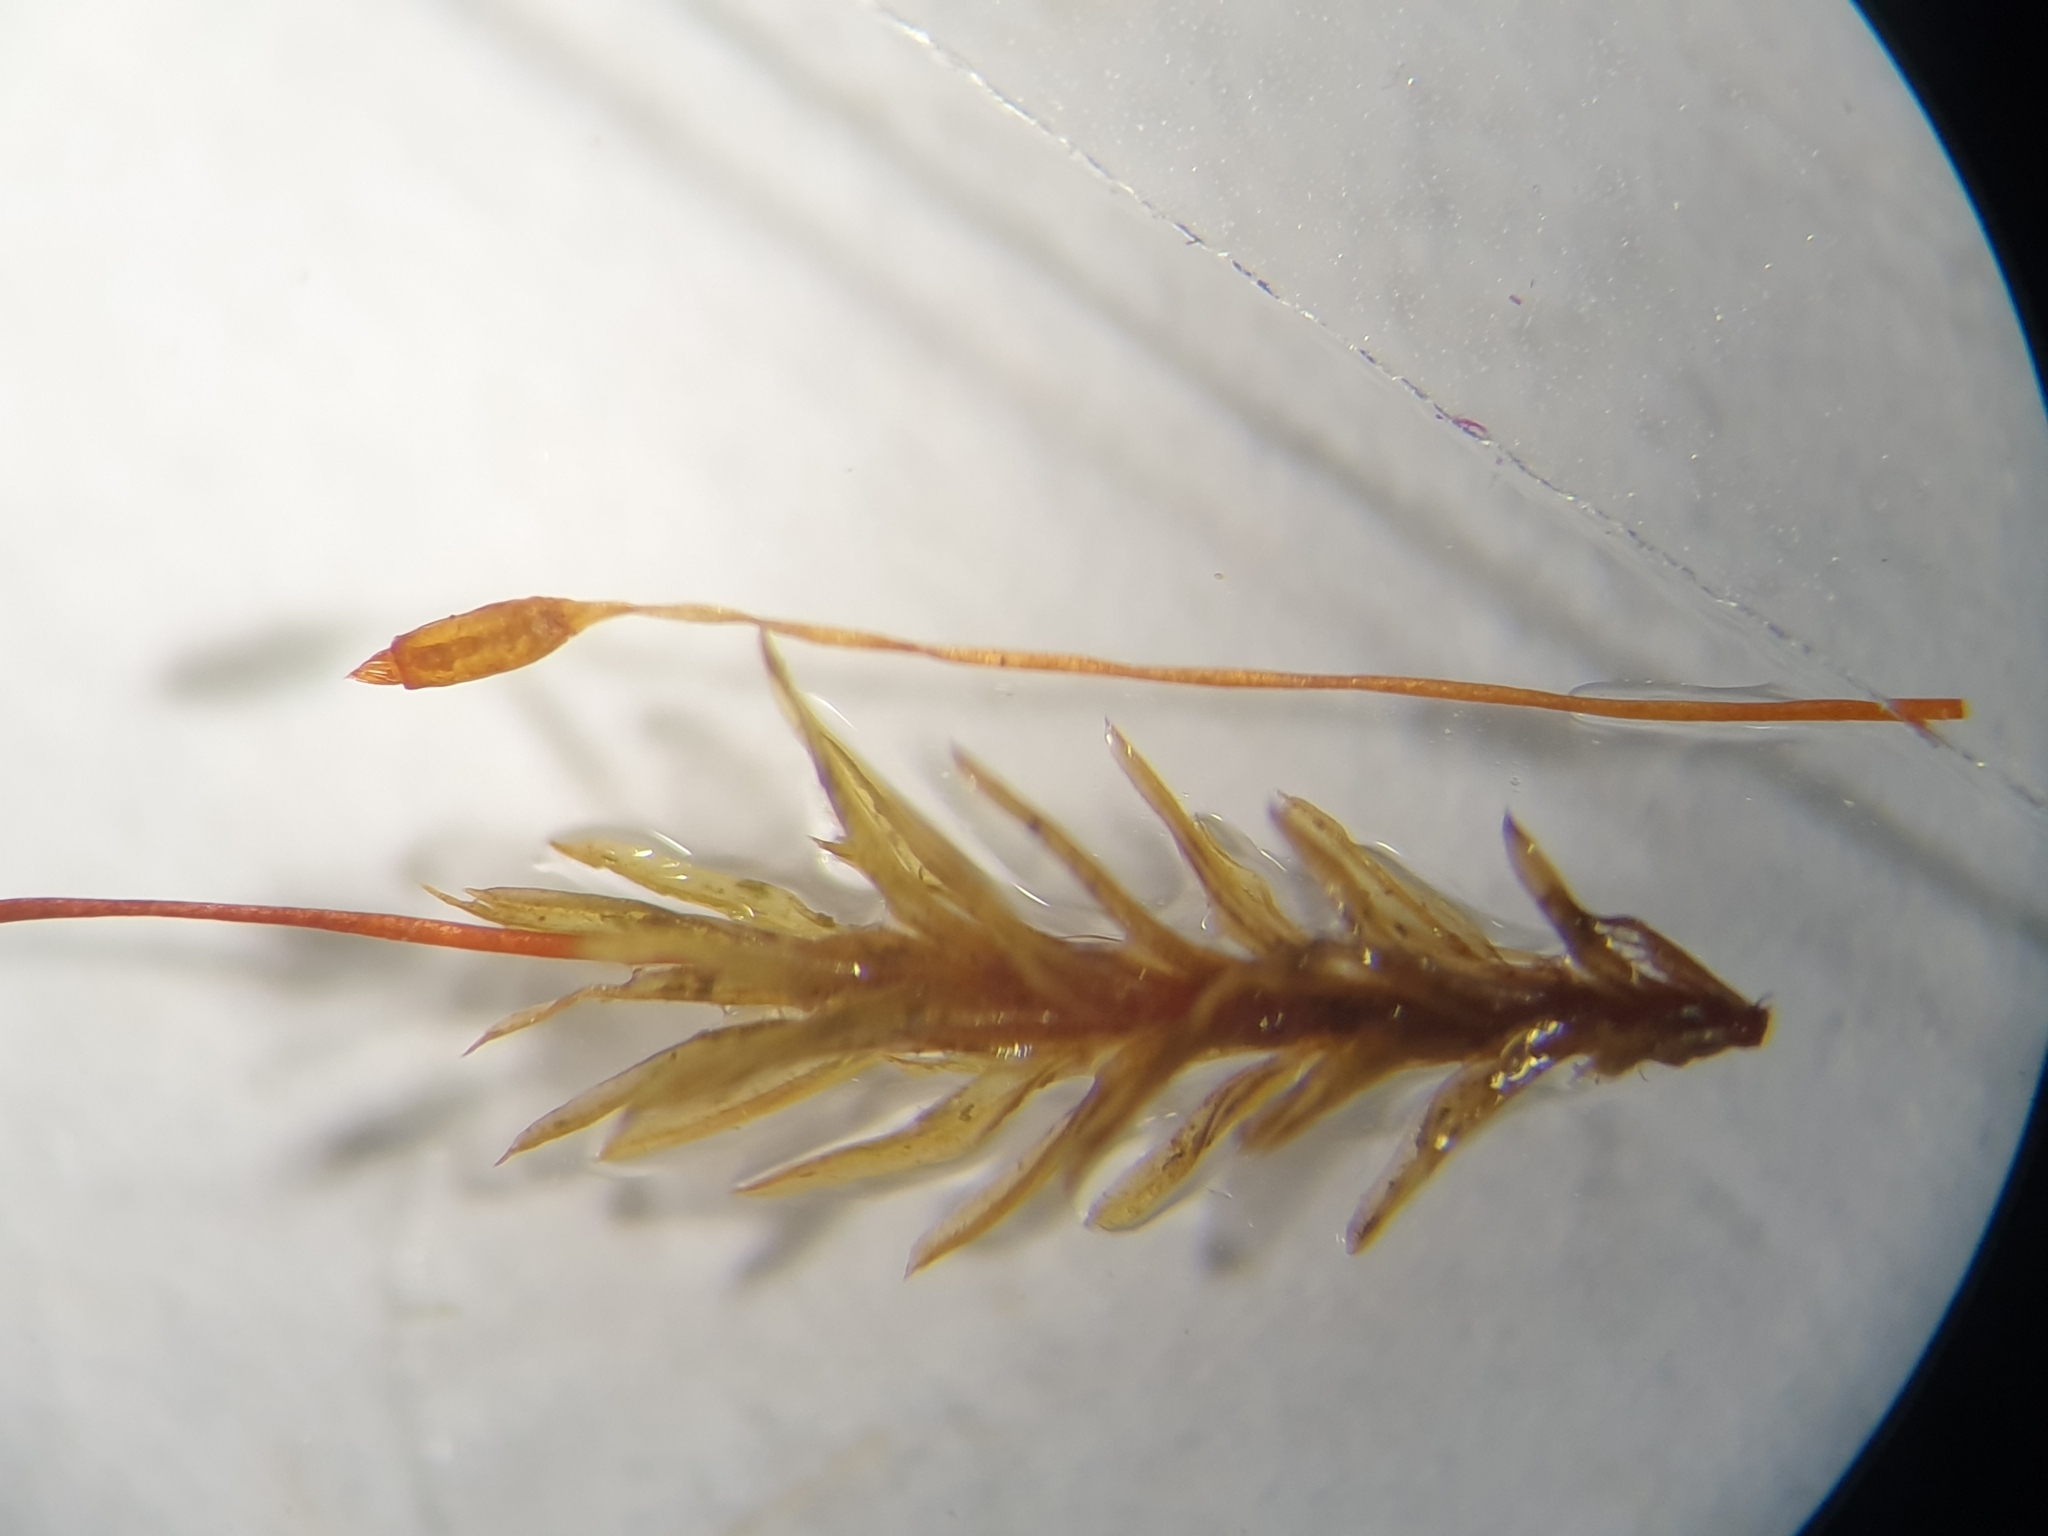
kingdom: Plantae
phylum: Bryophyta
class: Bryopsida
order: Pottiales
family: Pottiaceae
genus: Barbula
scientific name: Barbula unguiculata
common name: Prickly beard moss
